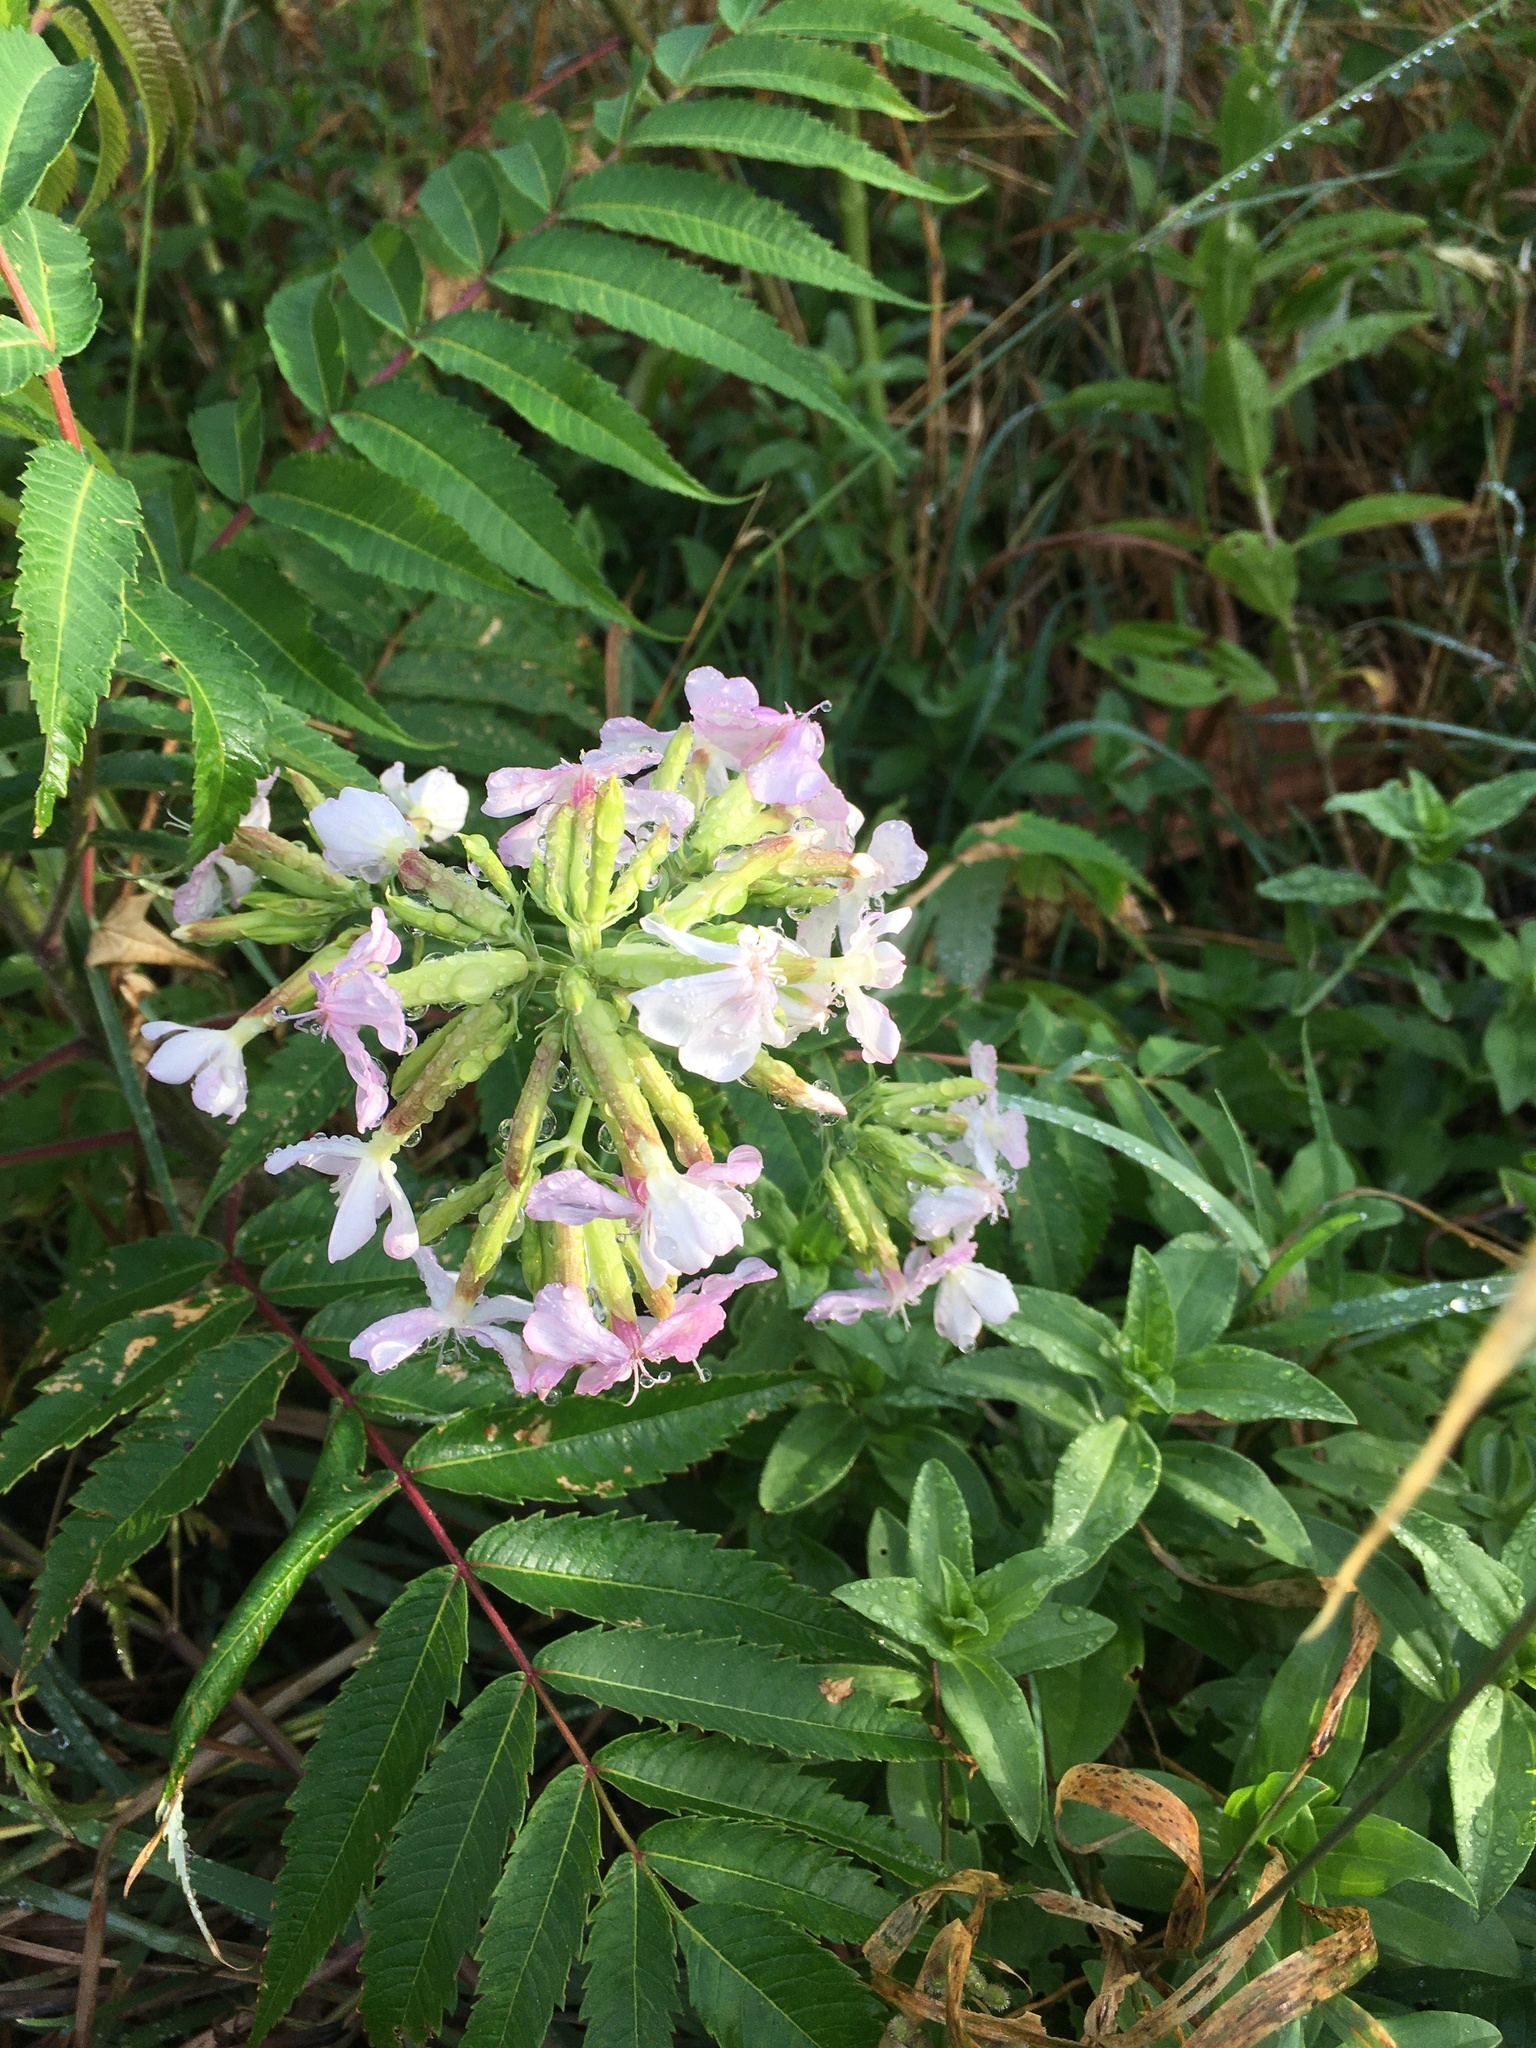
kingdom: Plantae
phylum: Tracheophyta
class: Magnoliopsida
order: Caryophyllales
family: Caryophyllaceae
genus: Saponaria
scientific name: Saponaria officinalis
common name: Soapwort
